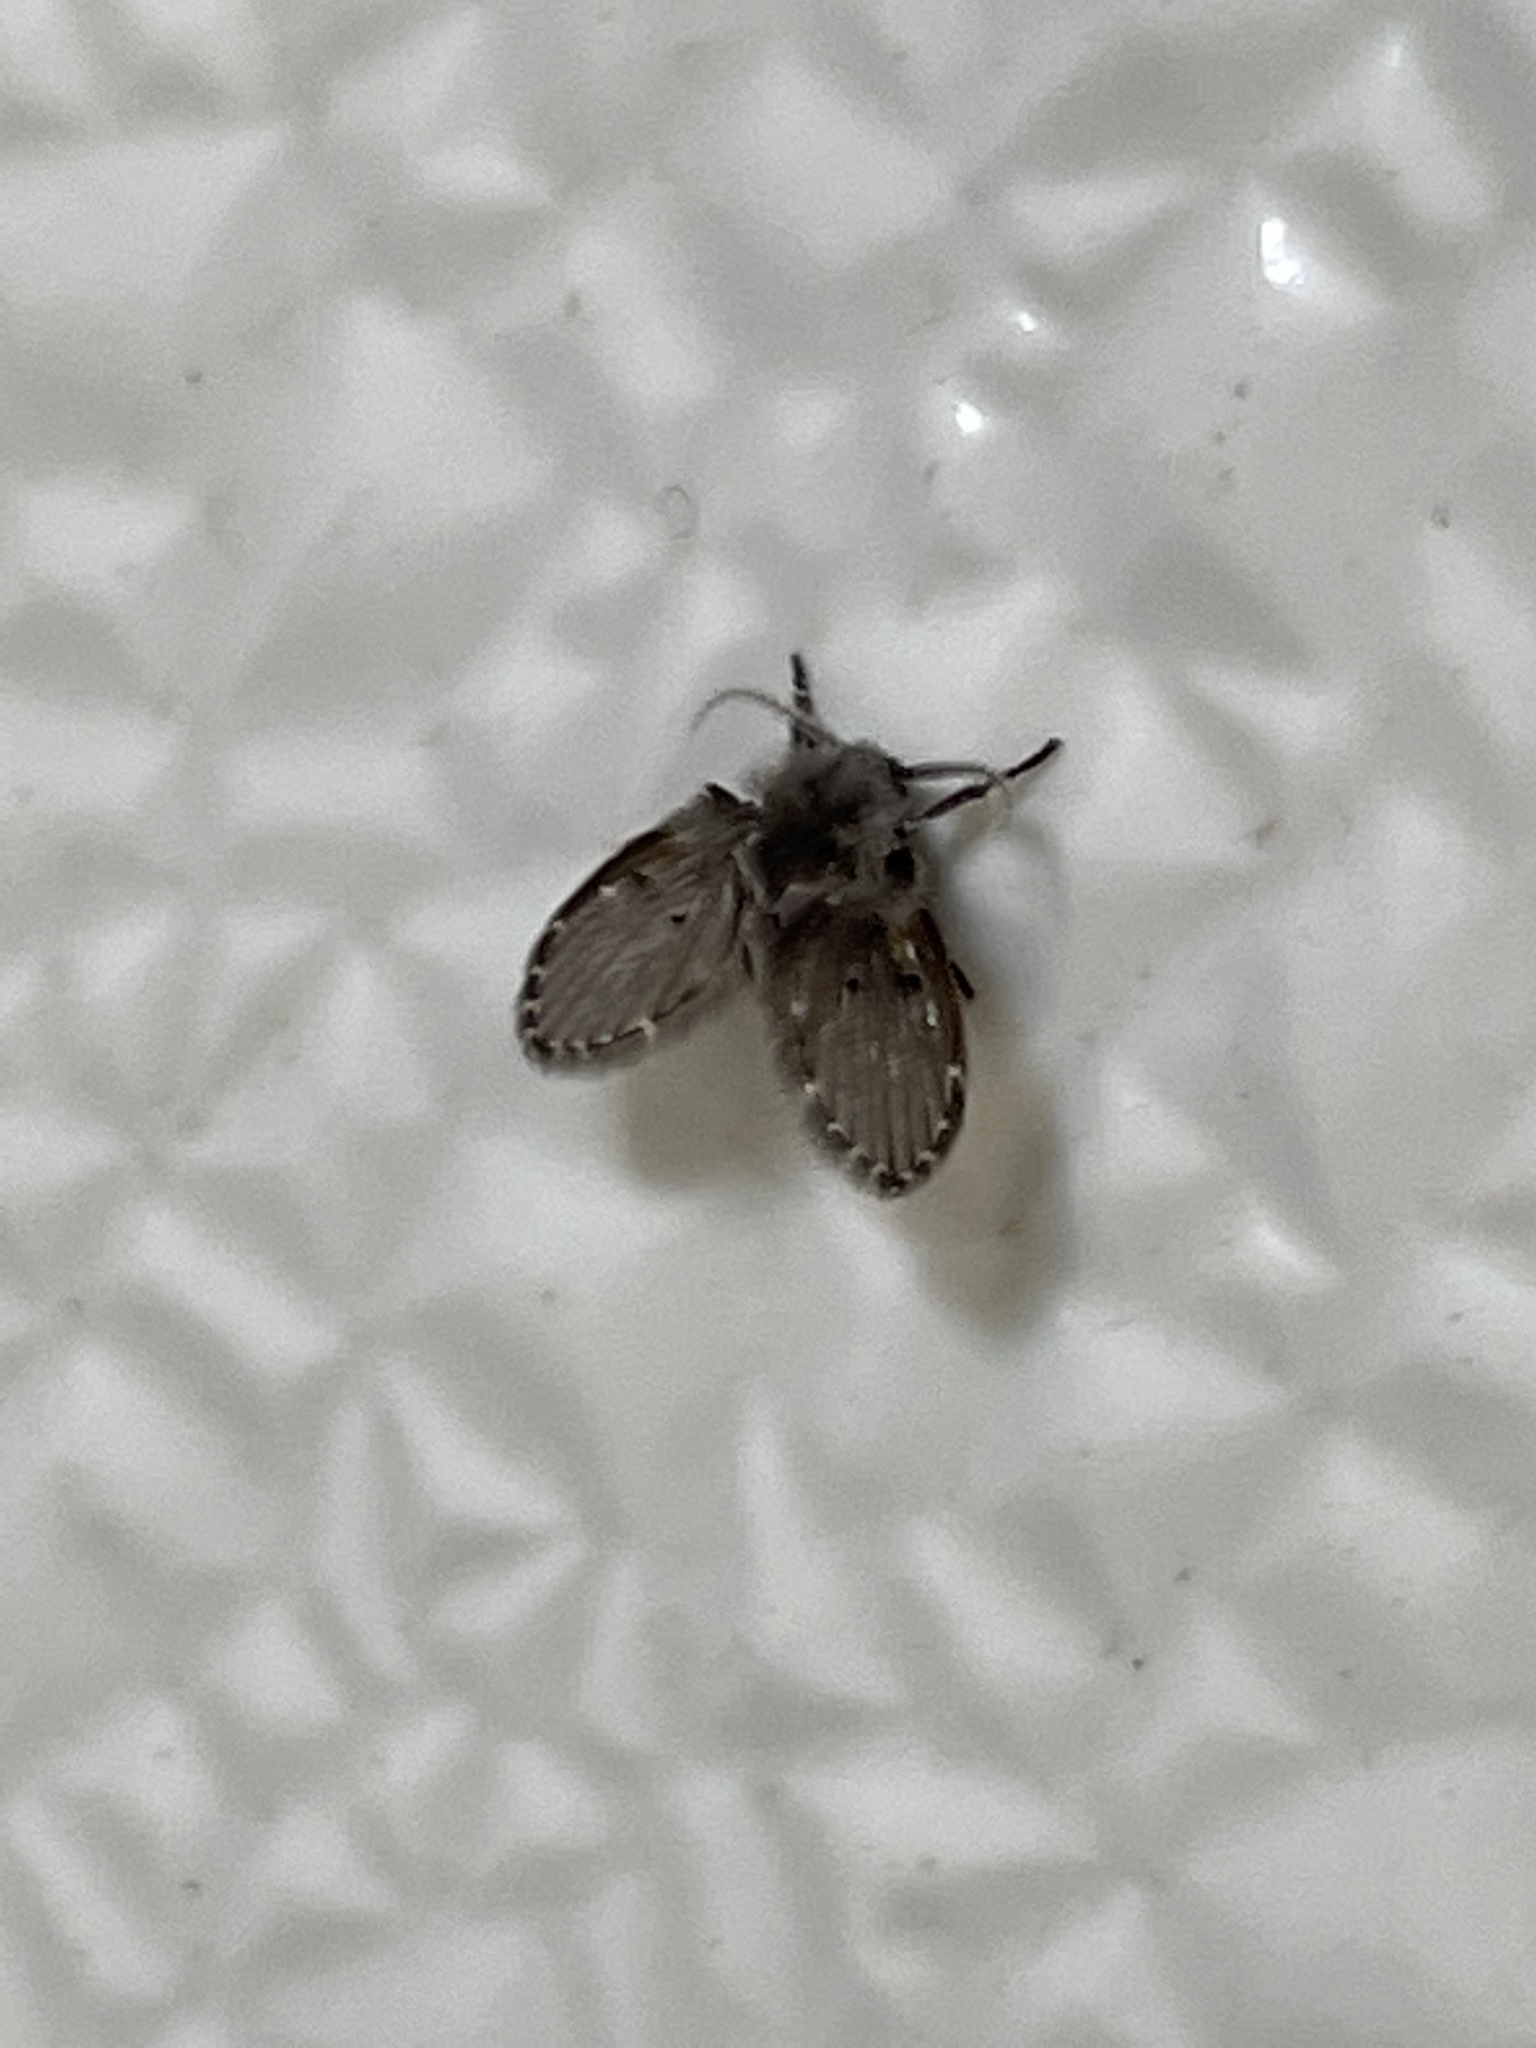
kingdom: Animalia
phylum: Arthropoda
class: Insecta
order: Diptera
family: Psychodidae
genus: Clogmia
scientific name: Clogmia albipunctatus
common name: White-spotted moth fly
